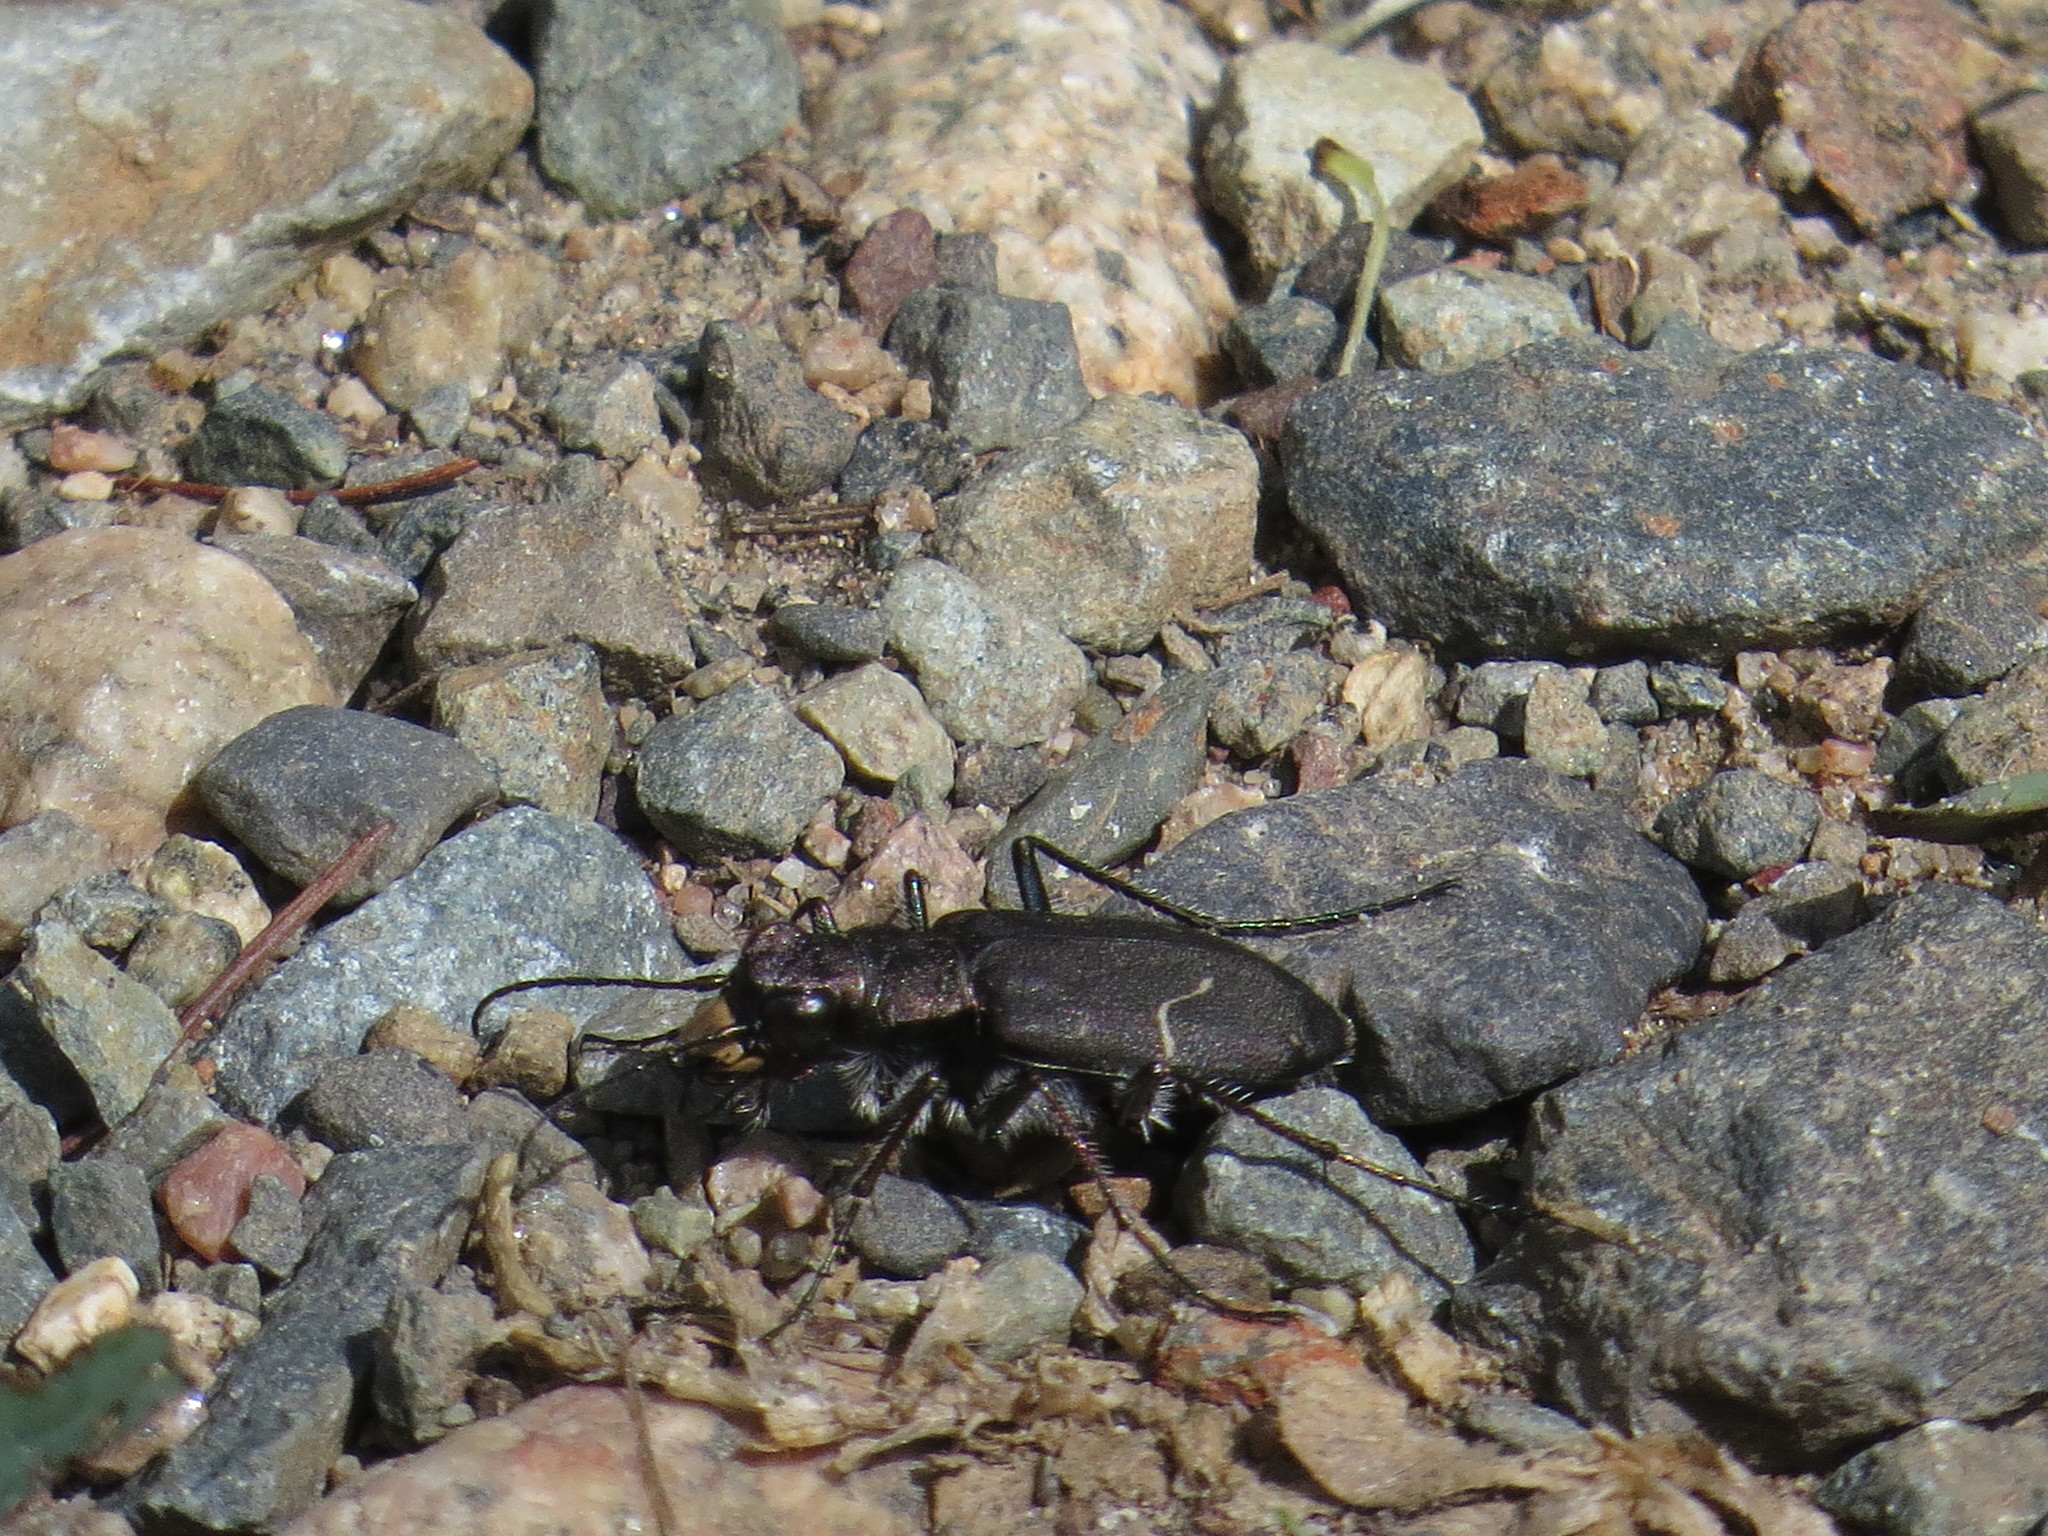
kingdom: Animalia
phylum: Arthropoda
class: Insecta
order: Coleoptera
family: Carabidae
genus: Cicindela
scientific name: Cicindela longilabris
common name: Boreal long-lipped tiger beetle
